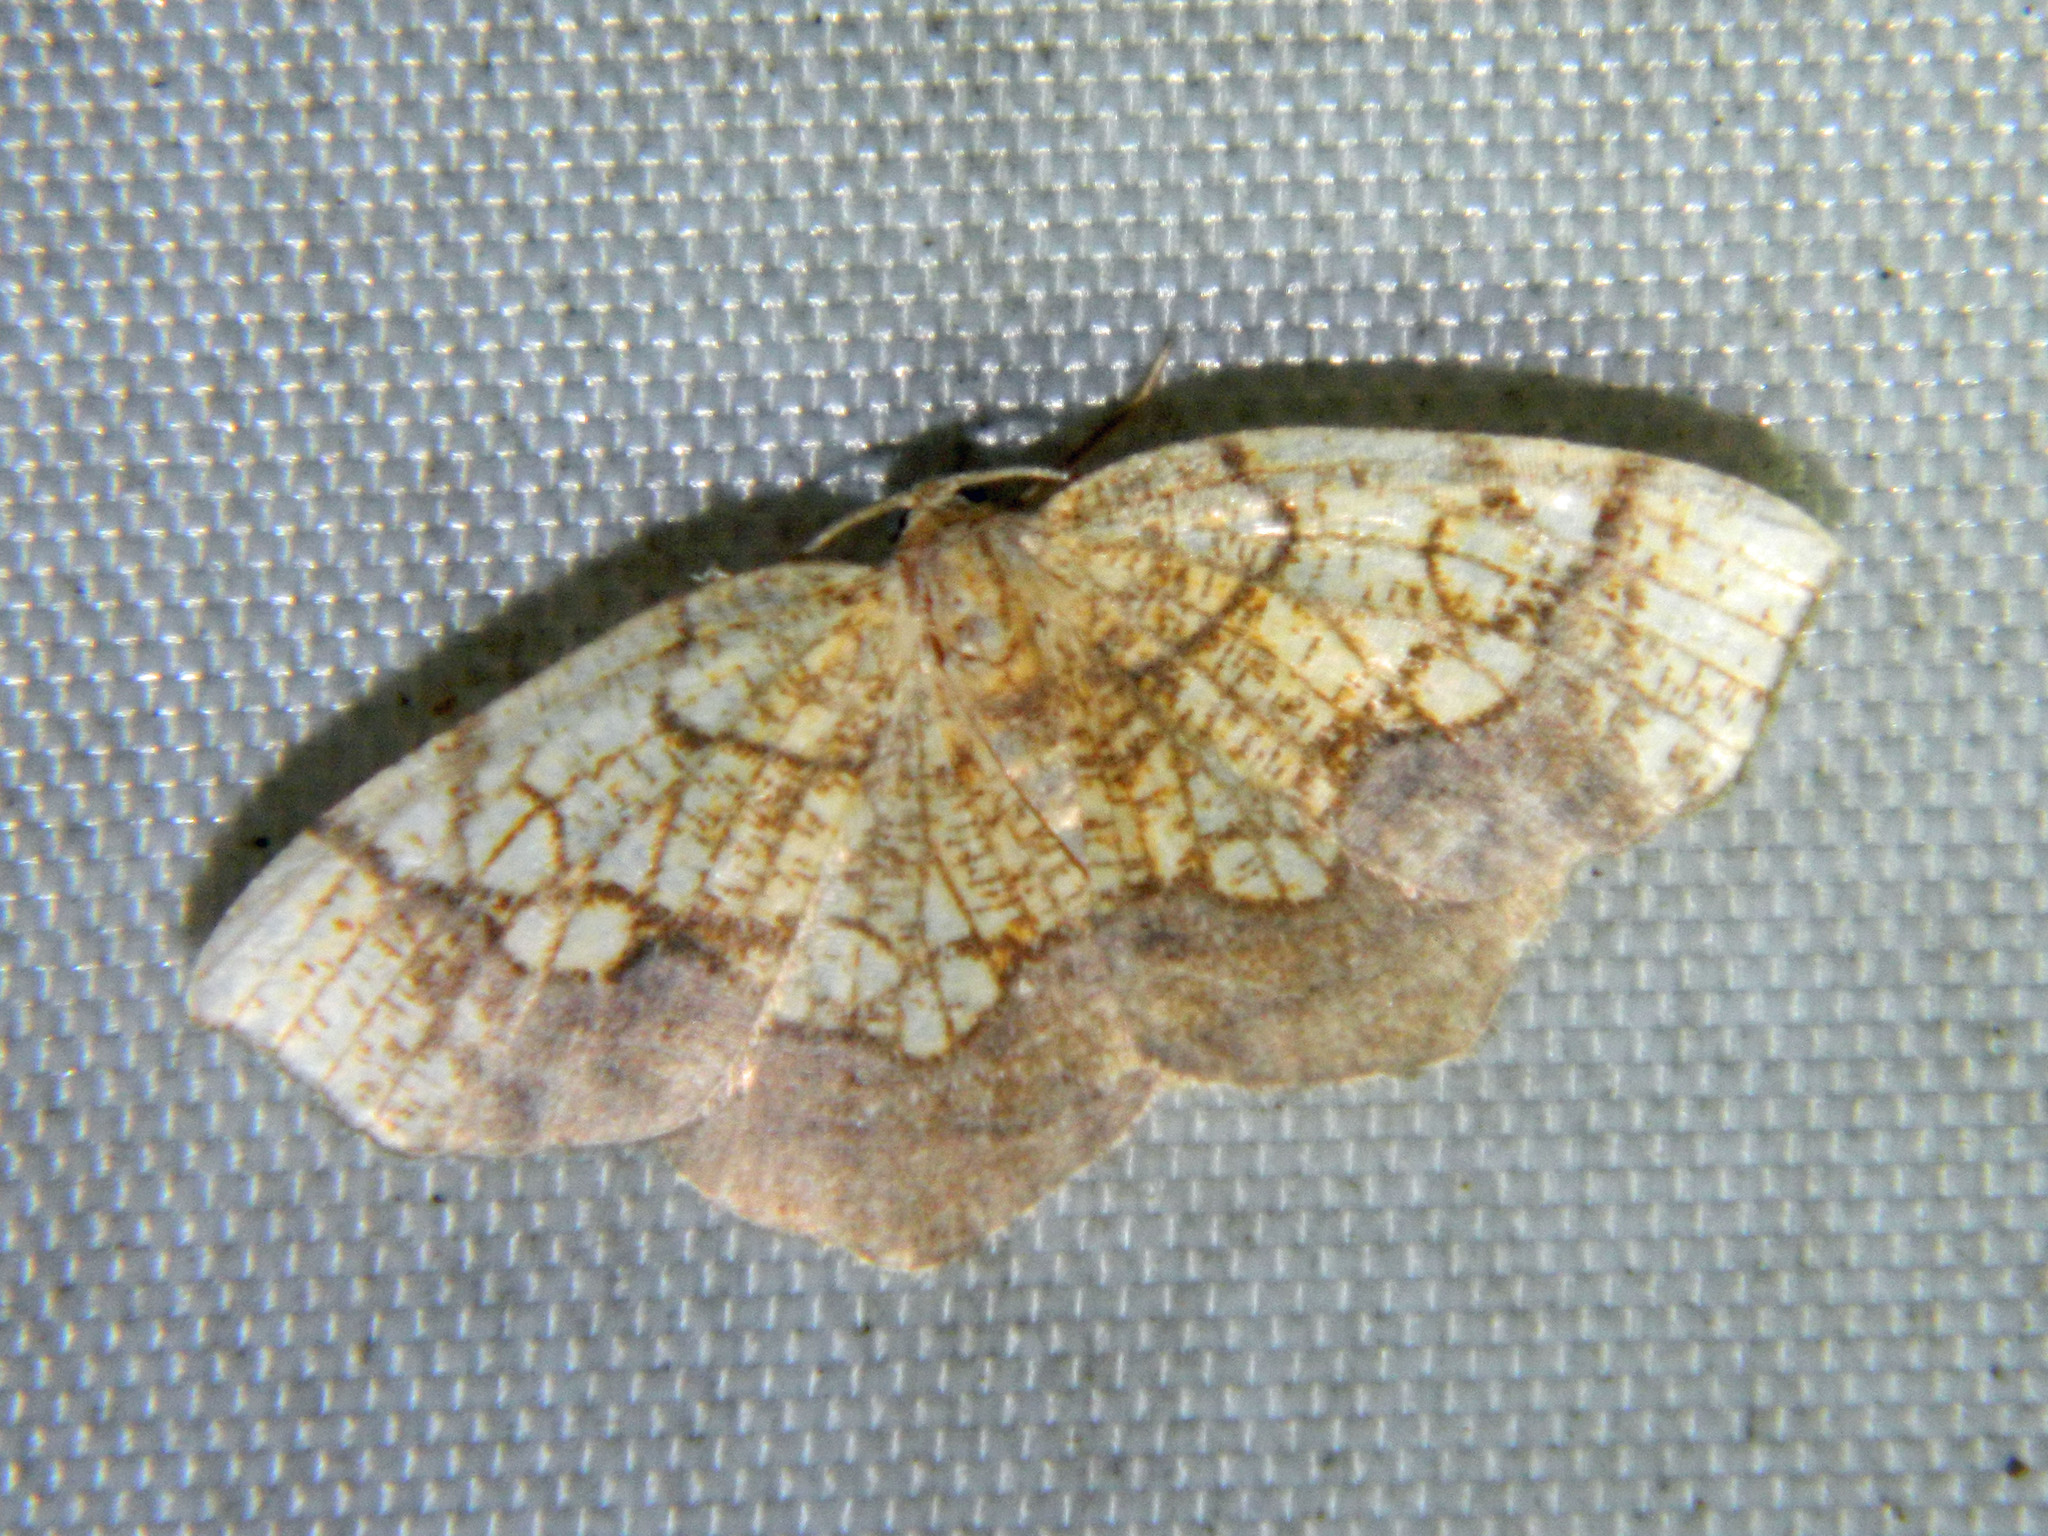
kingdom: Animalia
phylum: Arthropoda
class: Insecta
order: Lepidoptera
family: Geometridae
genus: Nematocampa
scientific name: Nematocampa resistaria
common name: Horned spanworm moth
